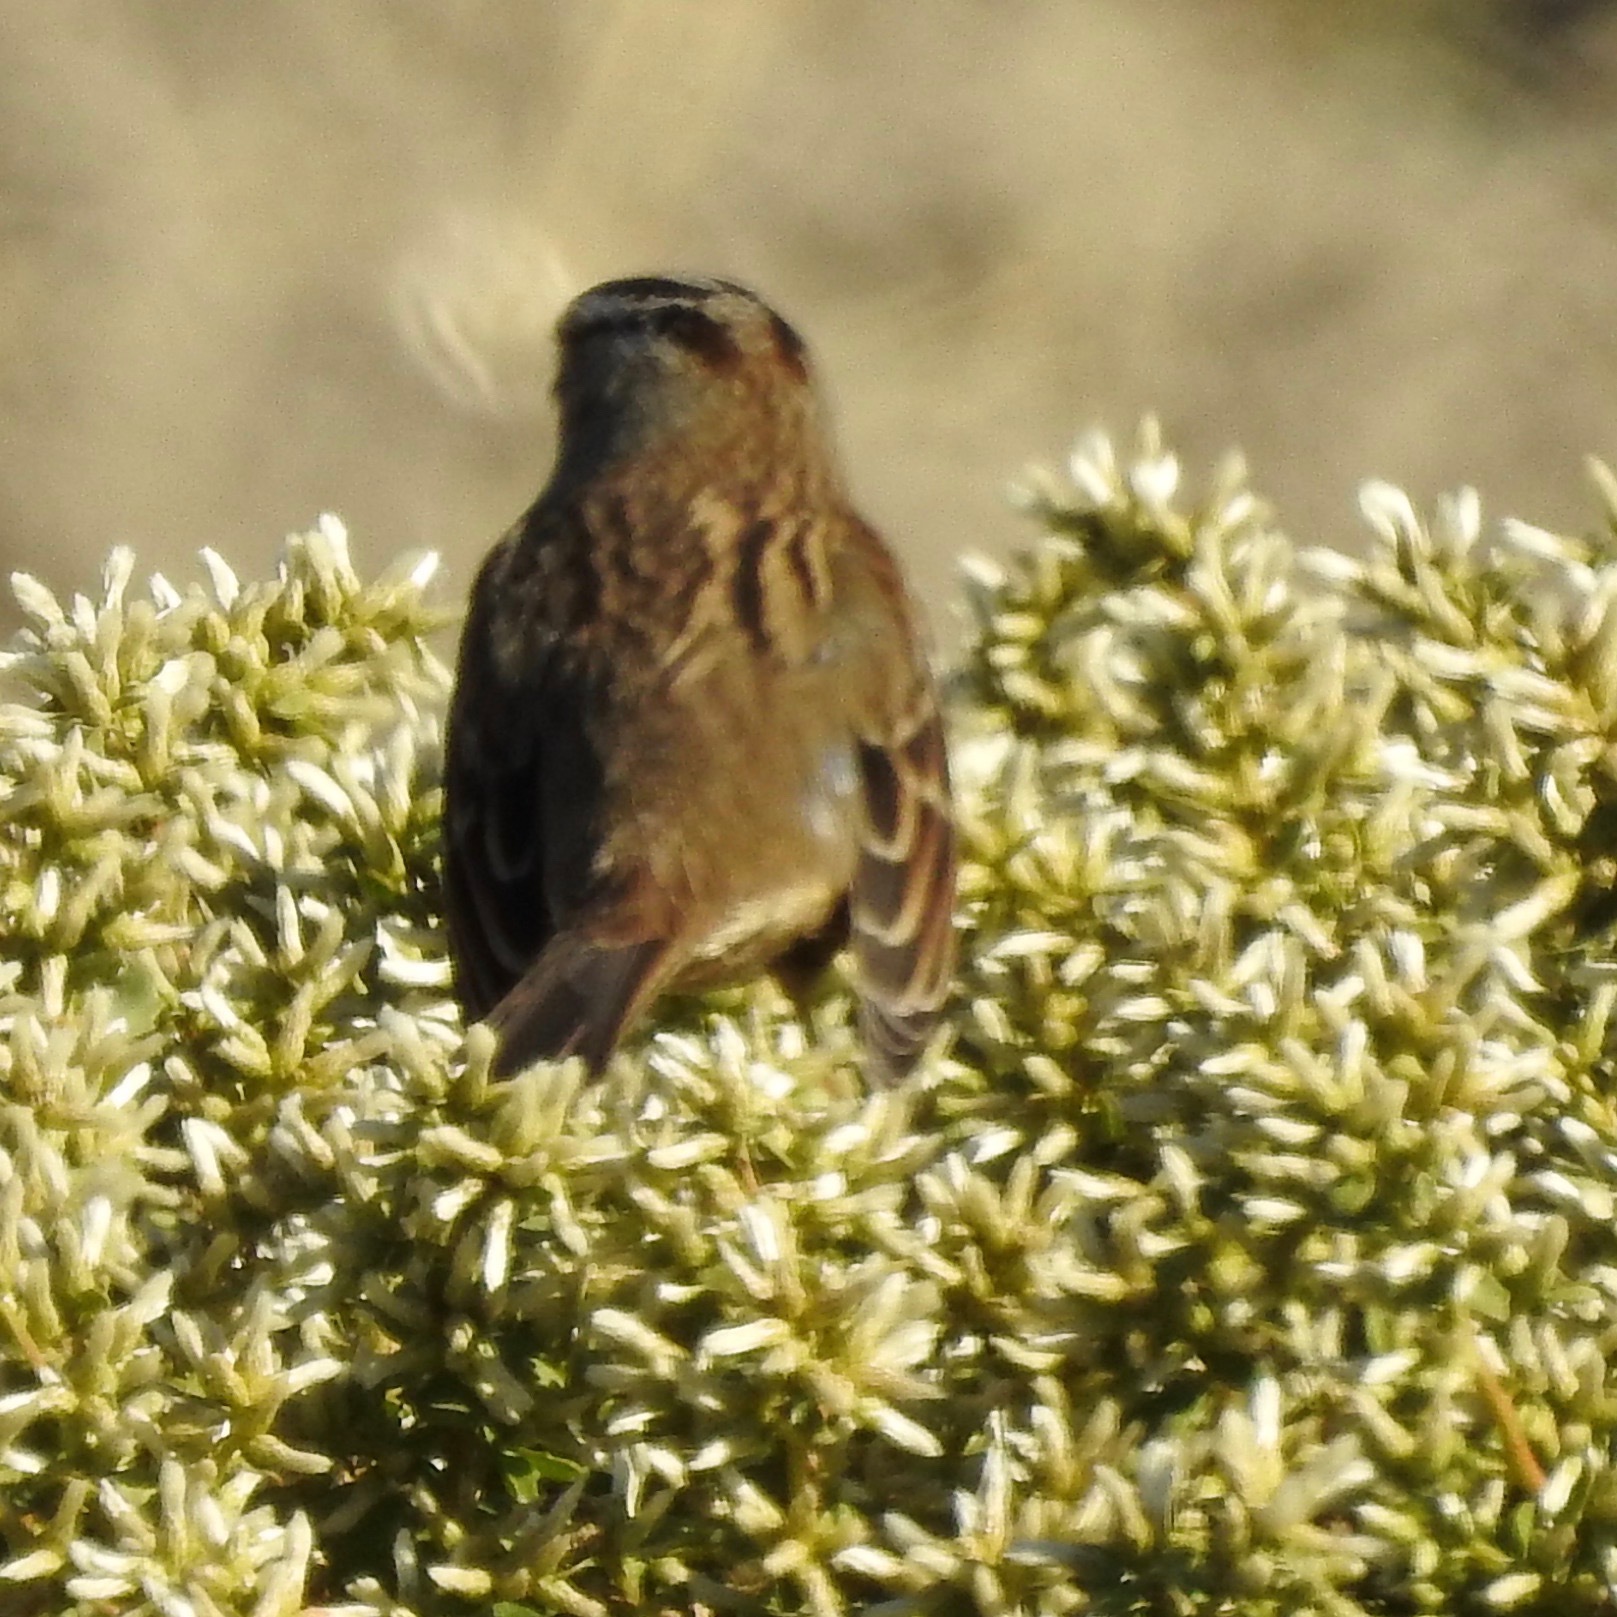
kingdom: Animalia
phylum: Chordata
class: Aves
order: Passeriformes
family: Passerellidae
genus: Zonotrichia
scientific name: Zonotrichia leucophrys
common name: White-crowned sparrow
